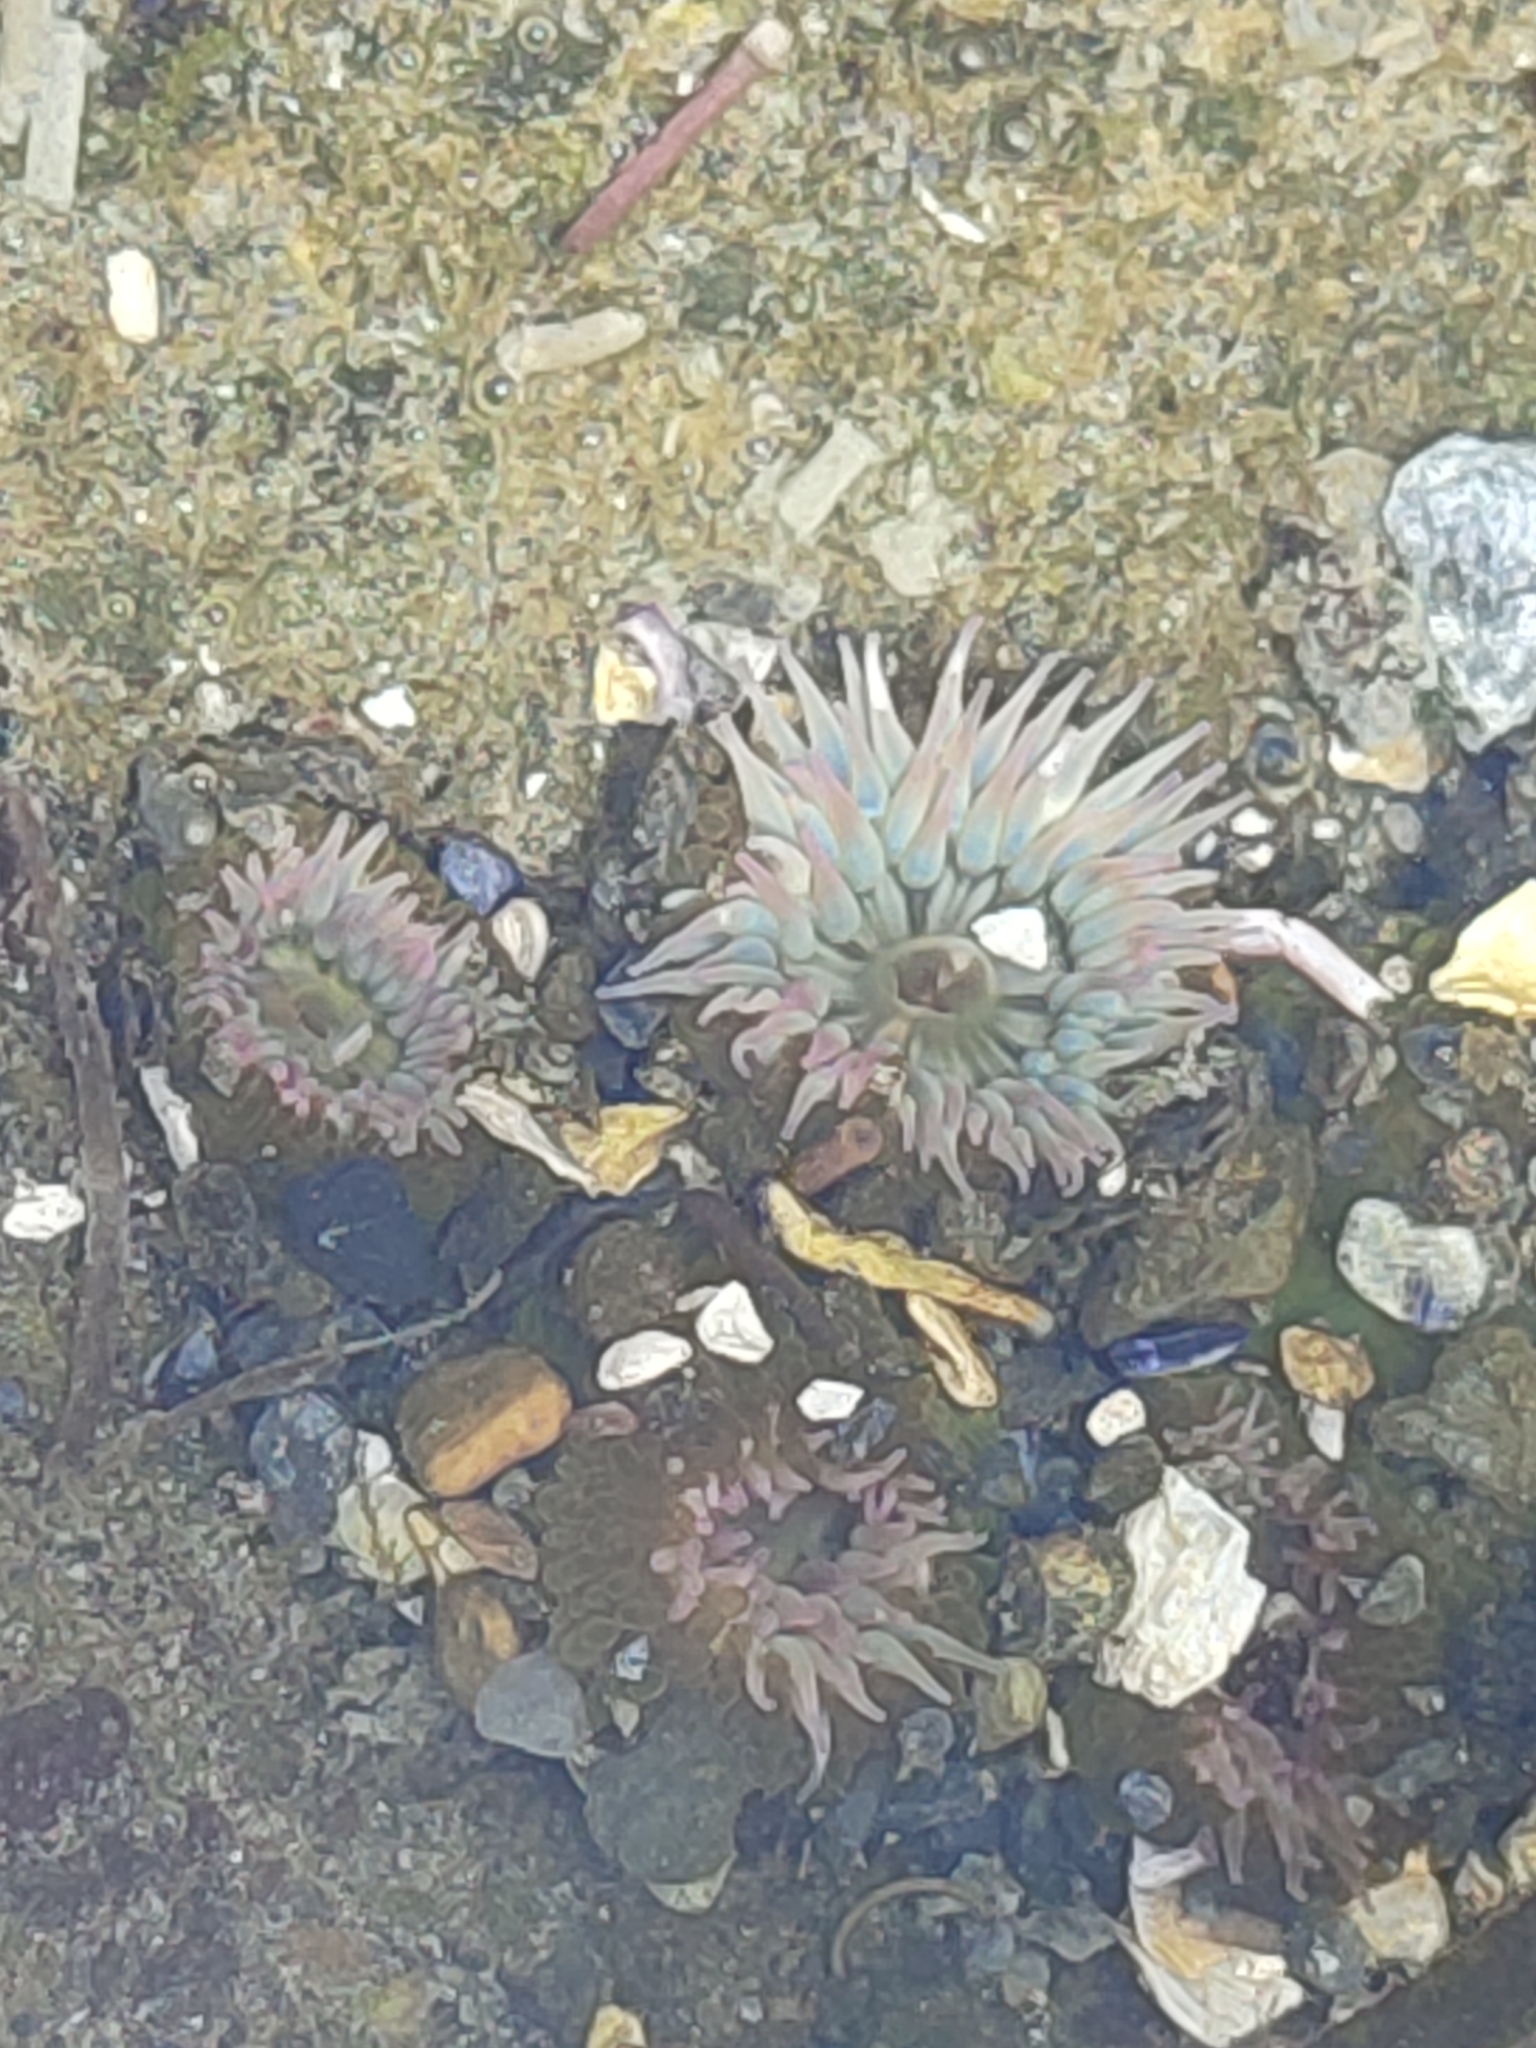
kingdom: Animalia
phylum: Cnidaria
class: Anthozoa
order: Actiniaria
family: Actiniidae
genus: Anthopleura
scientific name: Anthopleura elegantissima
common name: Clonal anemone
